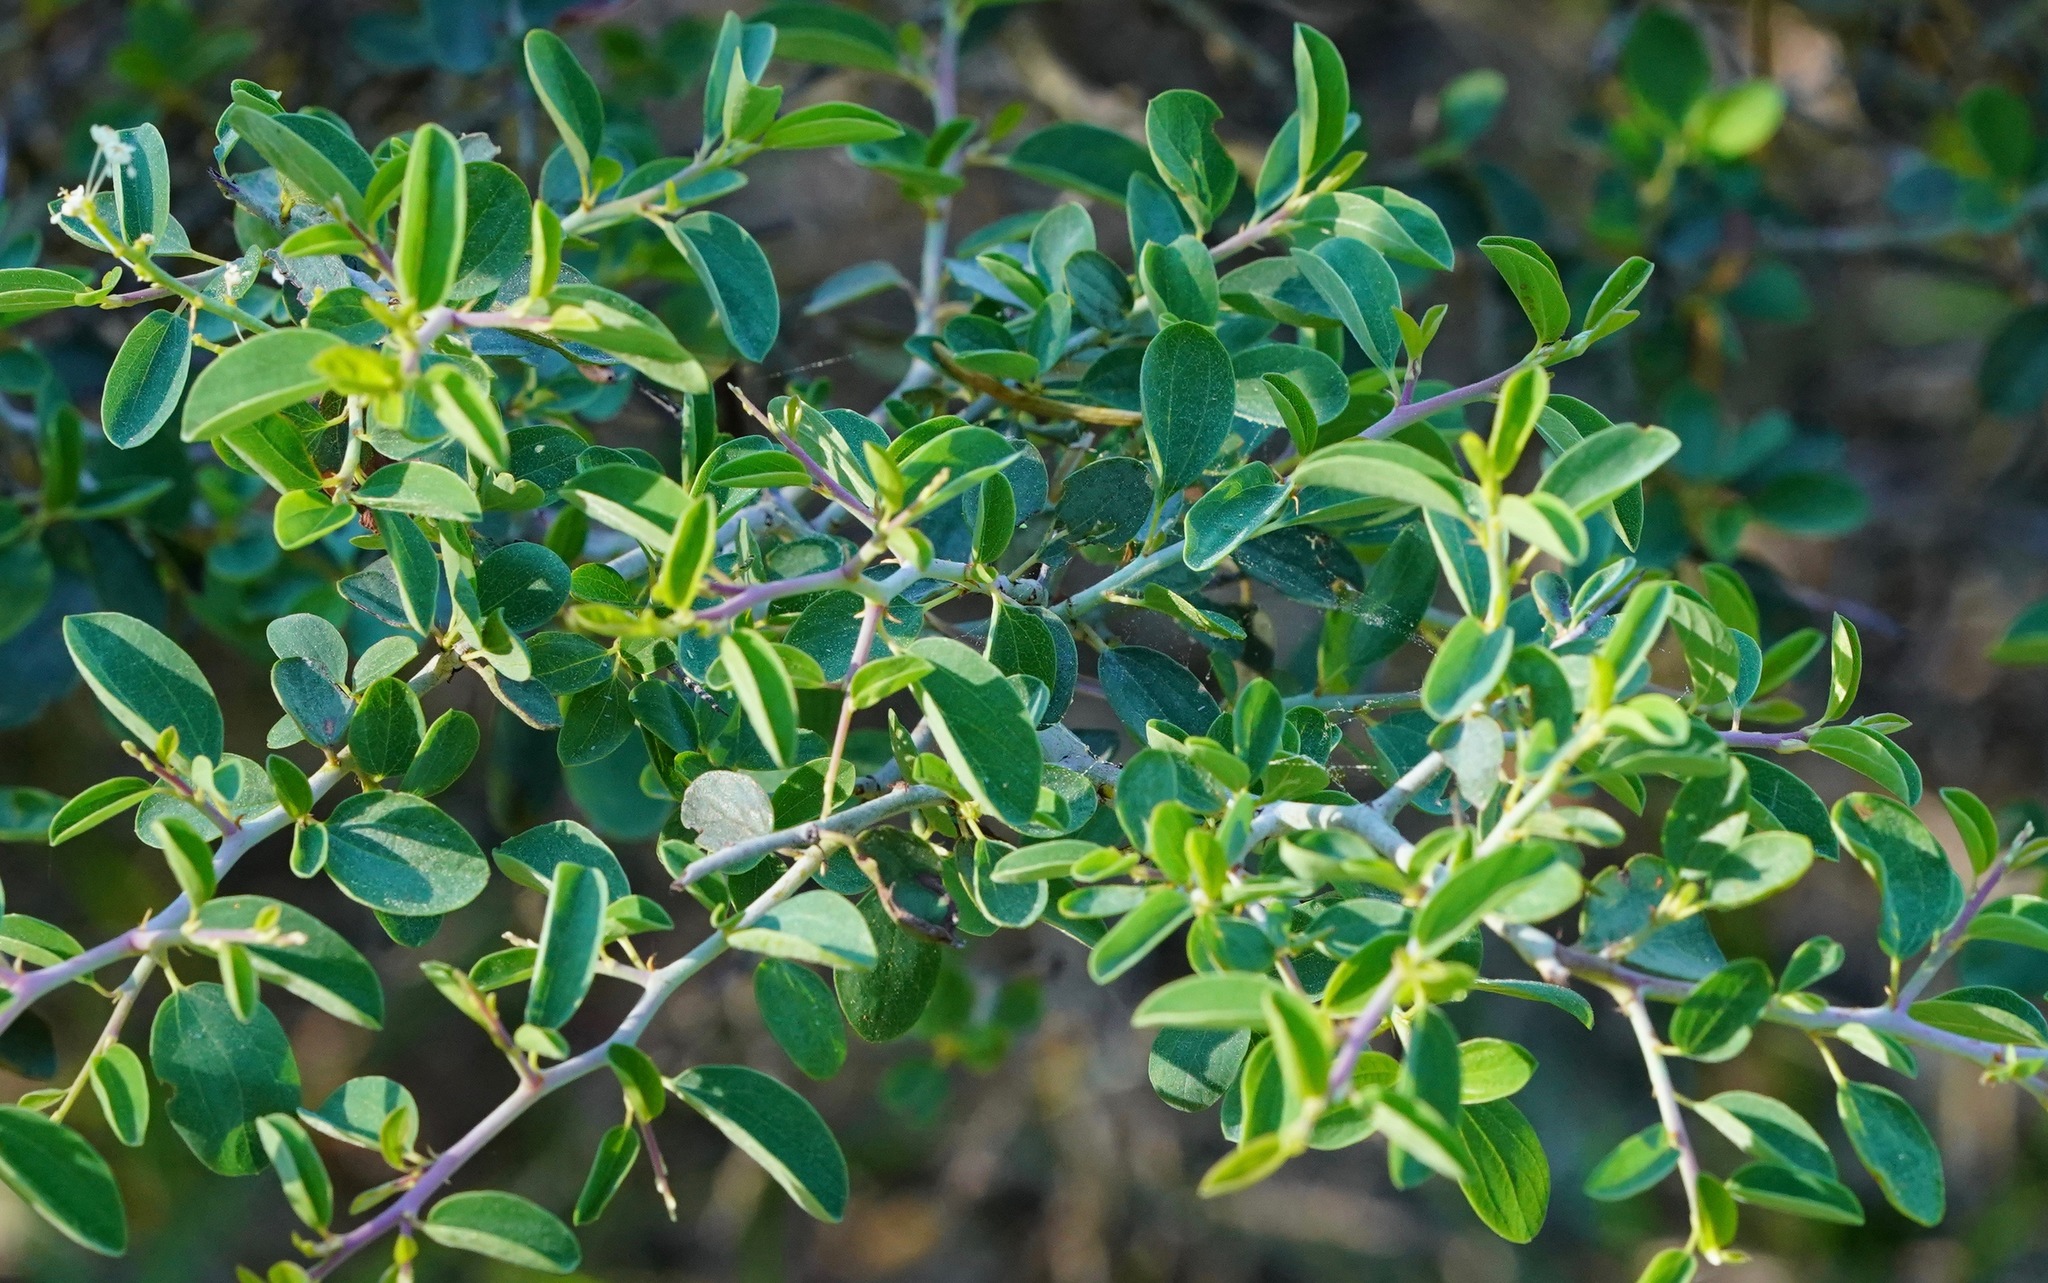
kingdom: Plantae
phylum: Tracheophyta
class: Magnoliopsida
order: Rosales
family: Rhamnaceae
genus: Ceanothus
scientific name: Ceanothus cordulatus
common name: Mountain whitethorn
